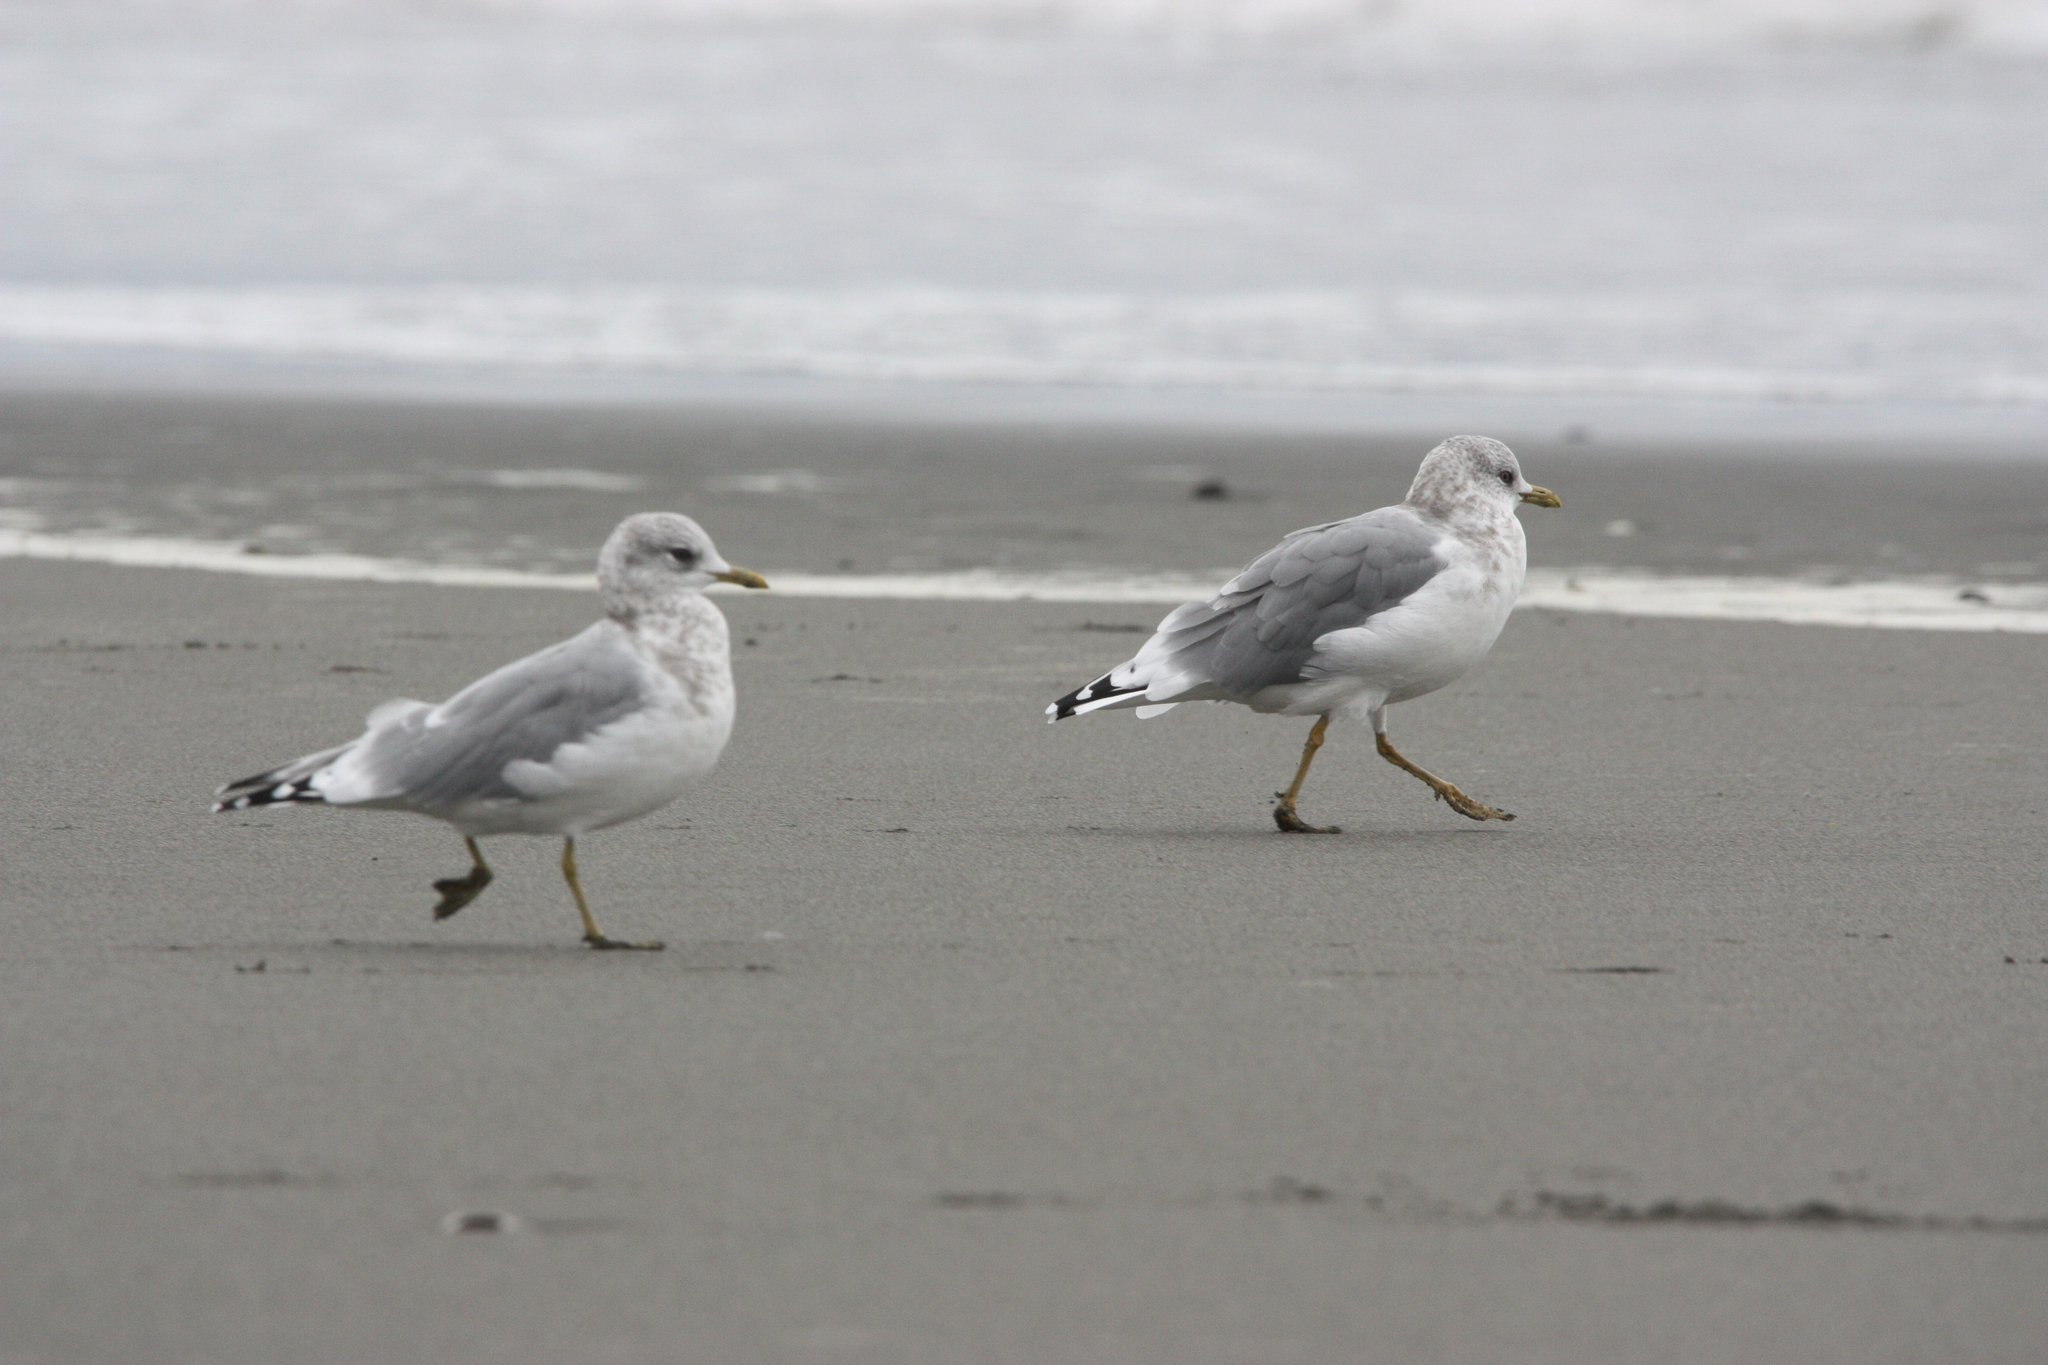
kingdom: Animalia
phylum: Chordata
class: Aves
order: Charadriiformes
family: Laridae
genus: Larus
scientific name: Larus brachyrhynchus
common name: Short-billed gull
